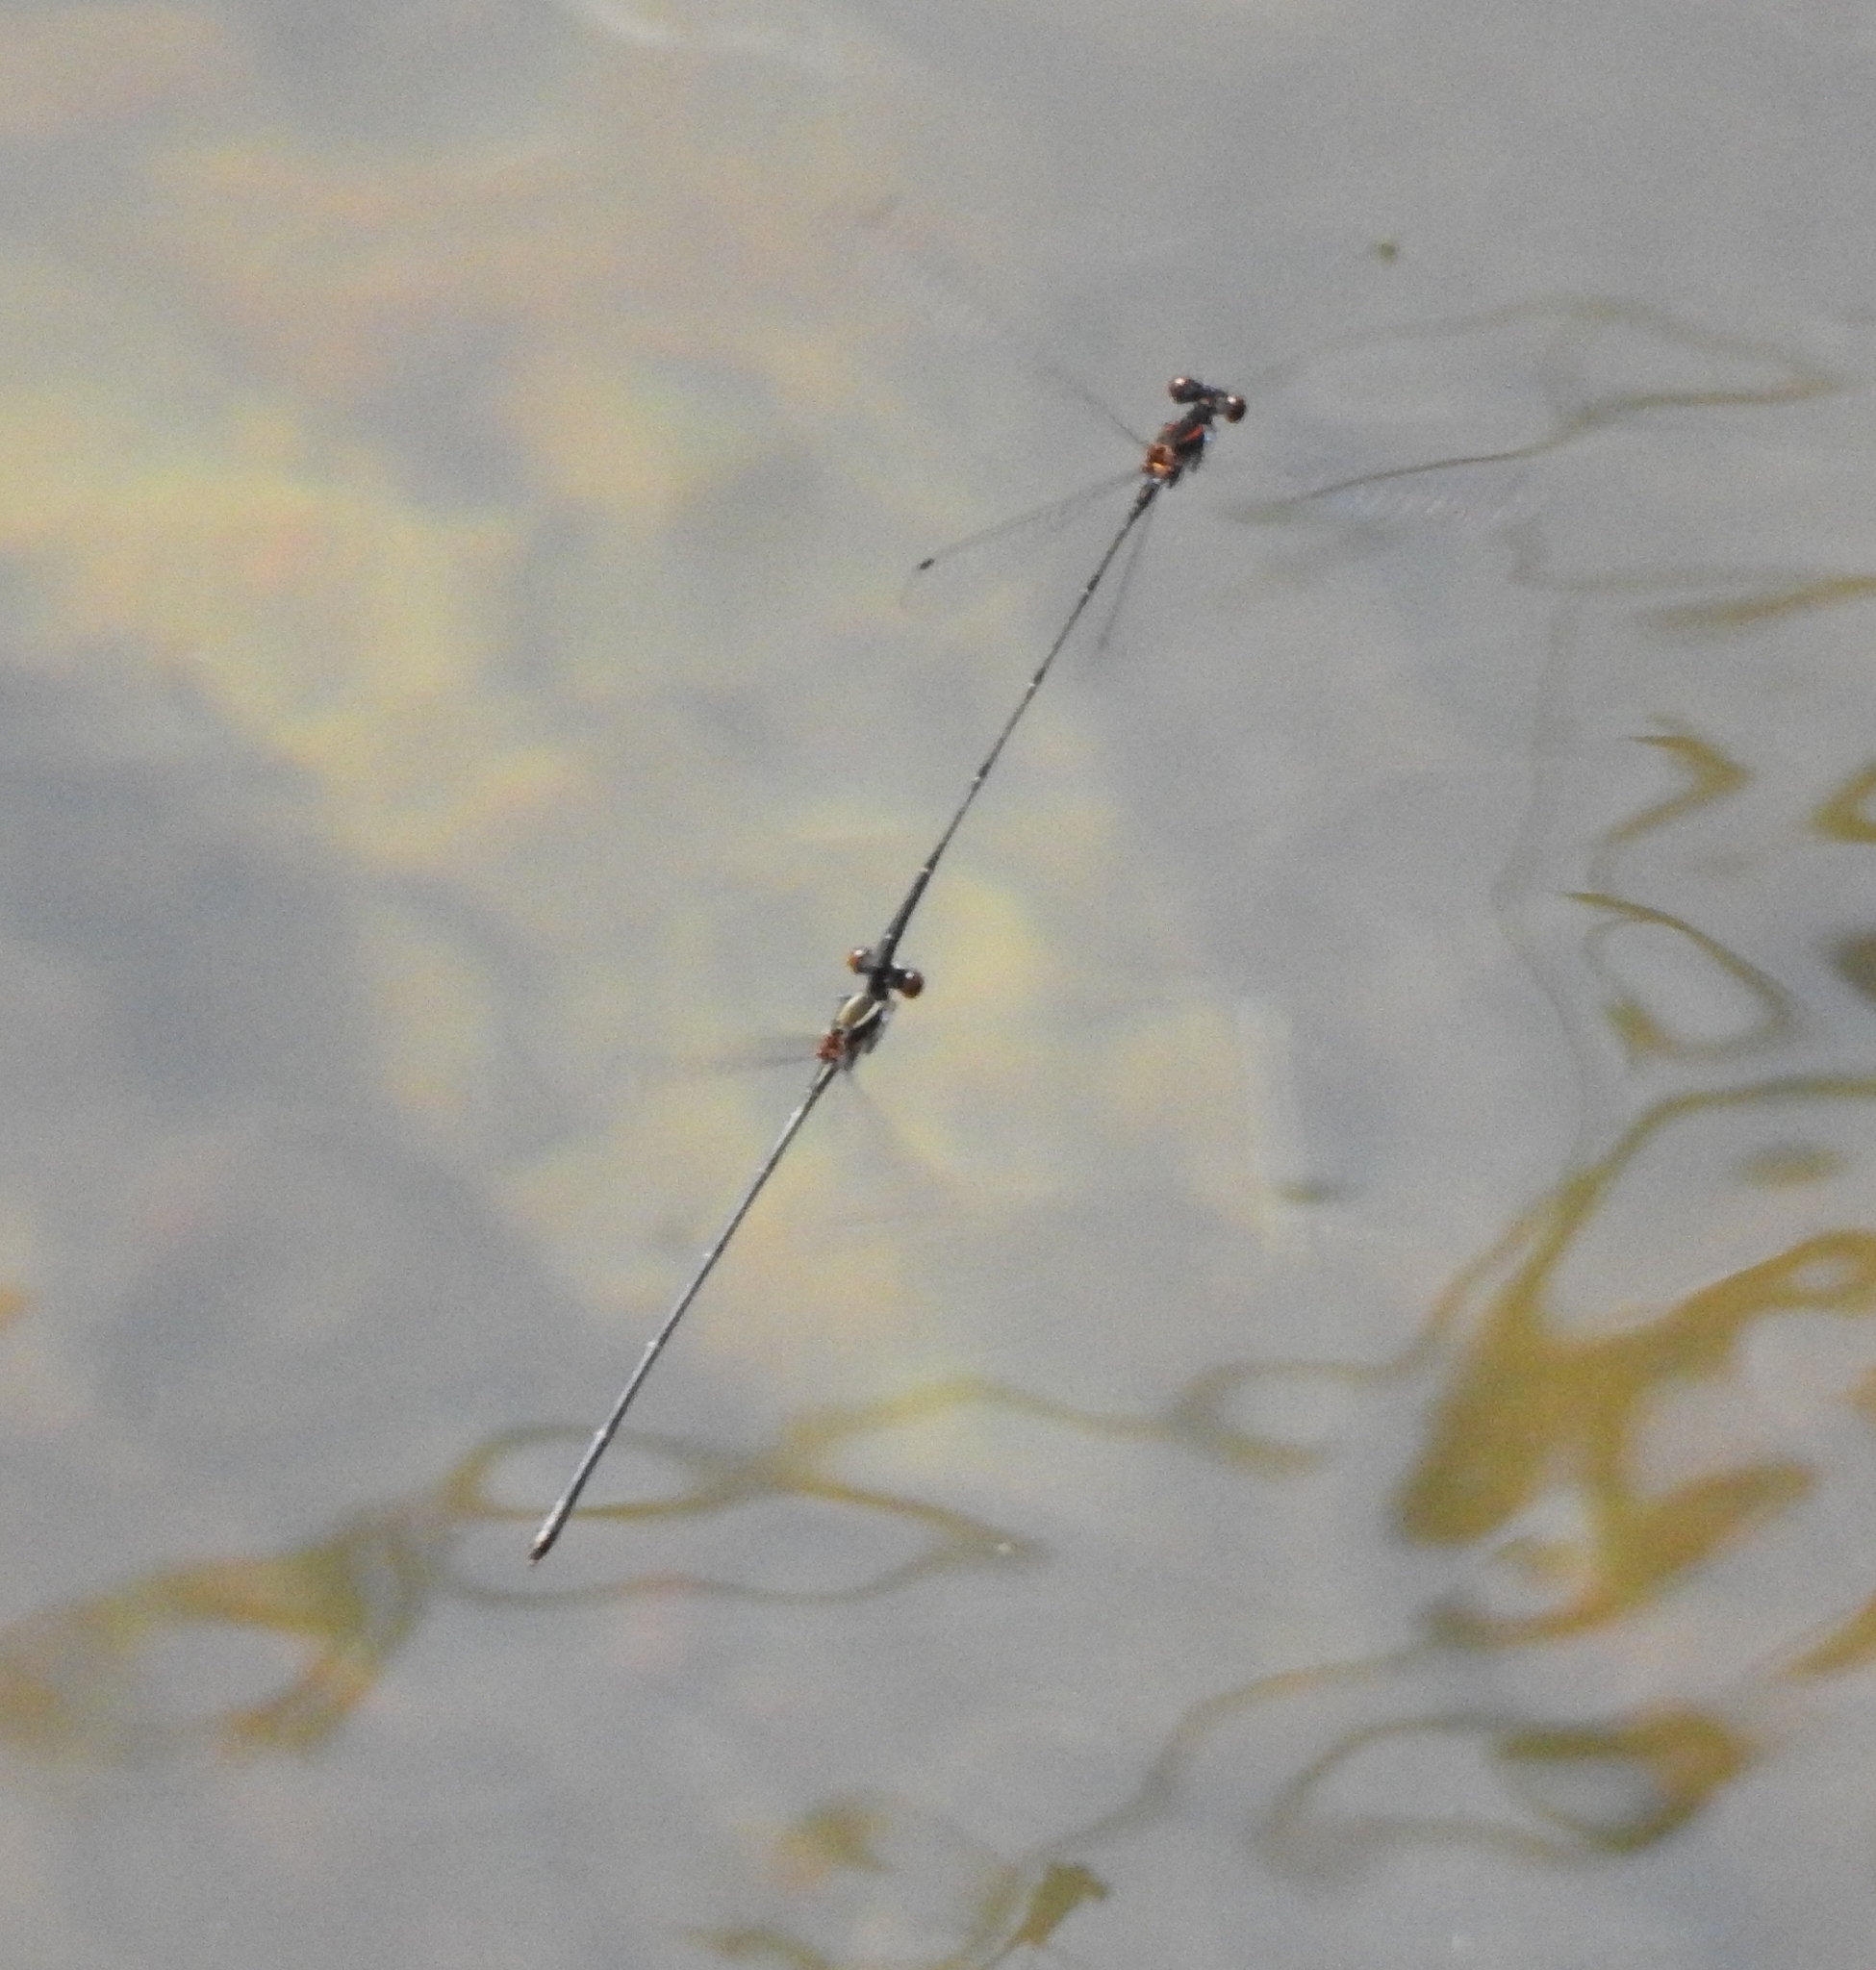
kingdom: Animalia
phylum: Arthropoda
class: Insecta
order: Odonata
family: Platycnemididae
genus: Prodasineura
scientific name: Prodasineura verticalis
